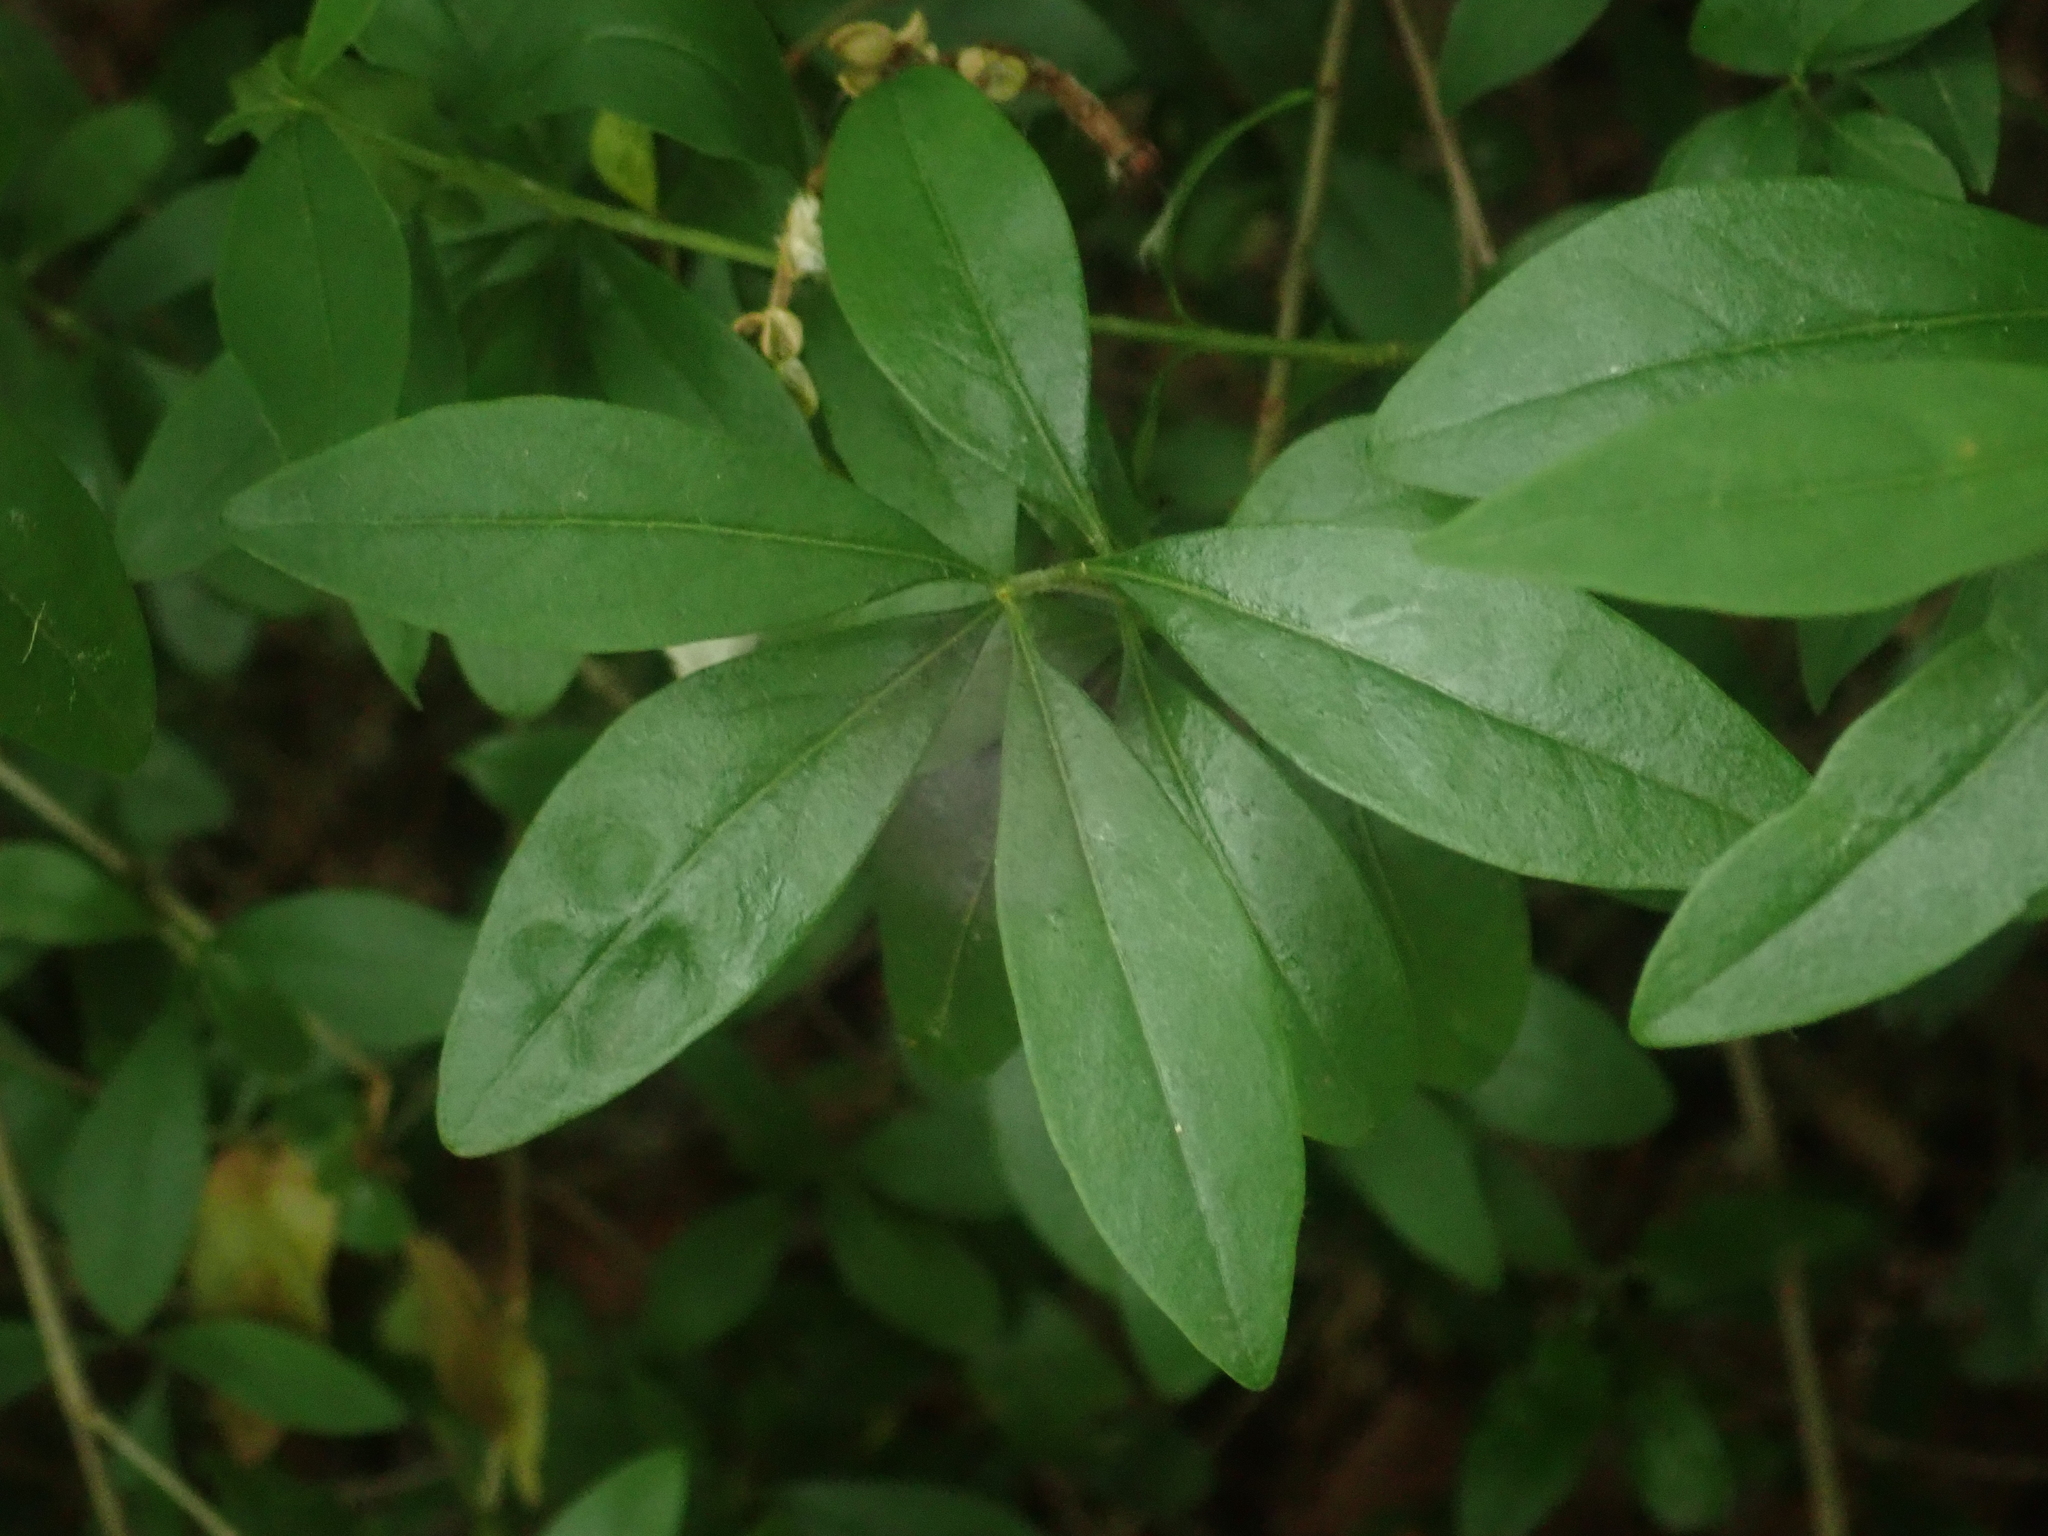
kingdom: Plantae
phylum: Tracheophyta
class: Magnoliopsida
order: Lamiales
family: Oleaceae
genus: Ligustrum
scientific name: Ligustrum vulgare
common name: Wild privet
